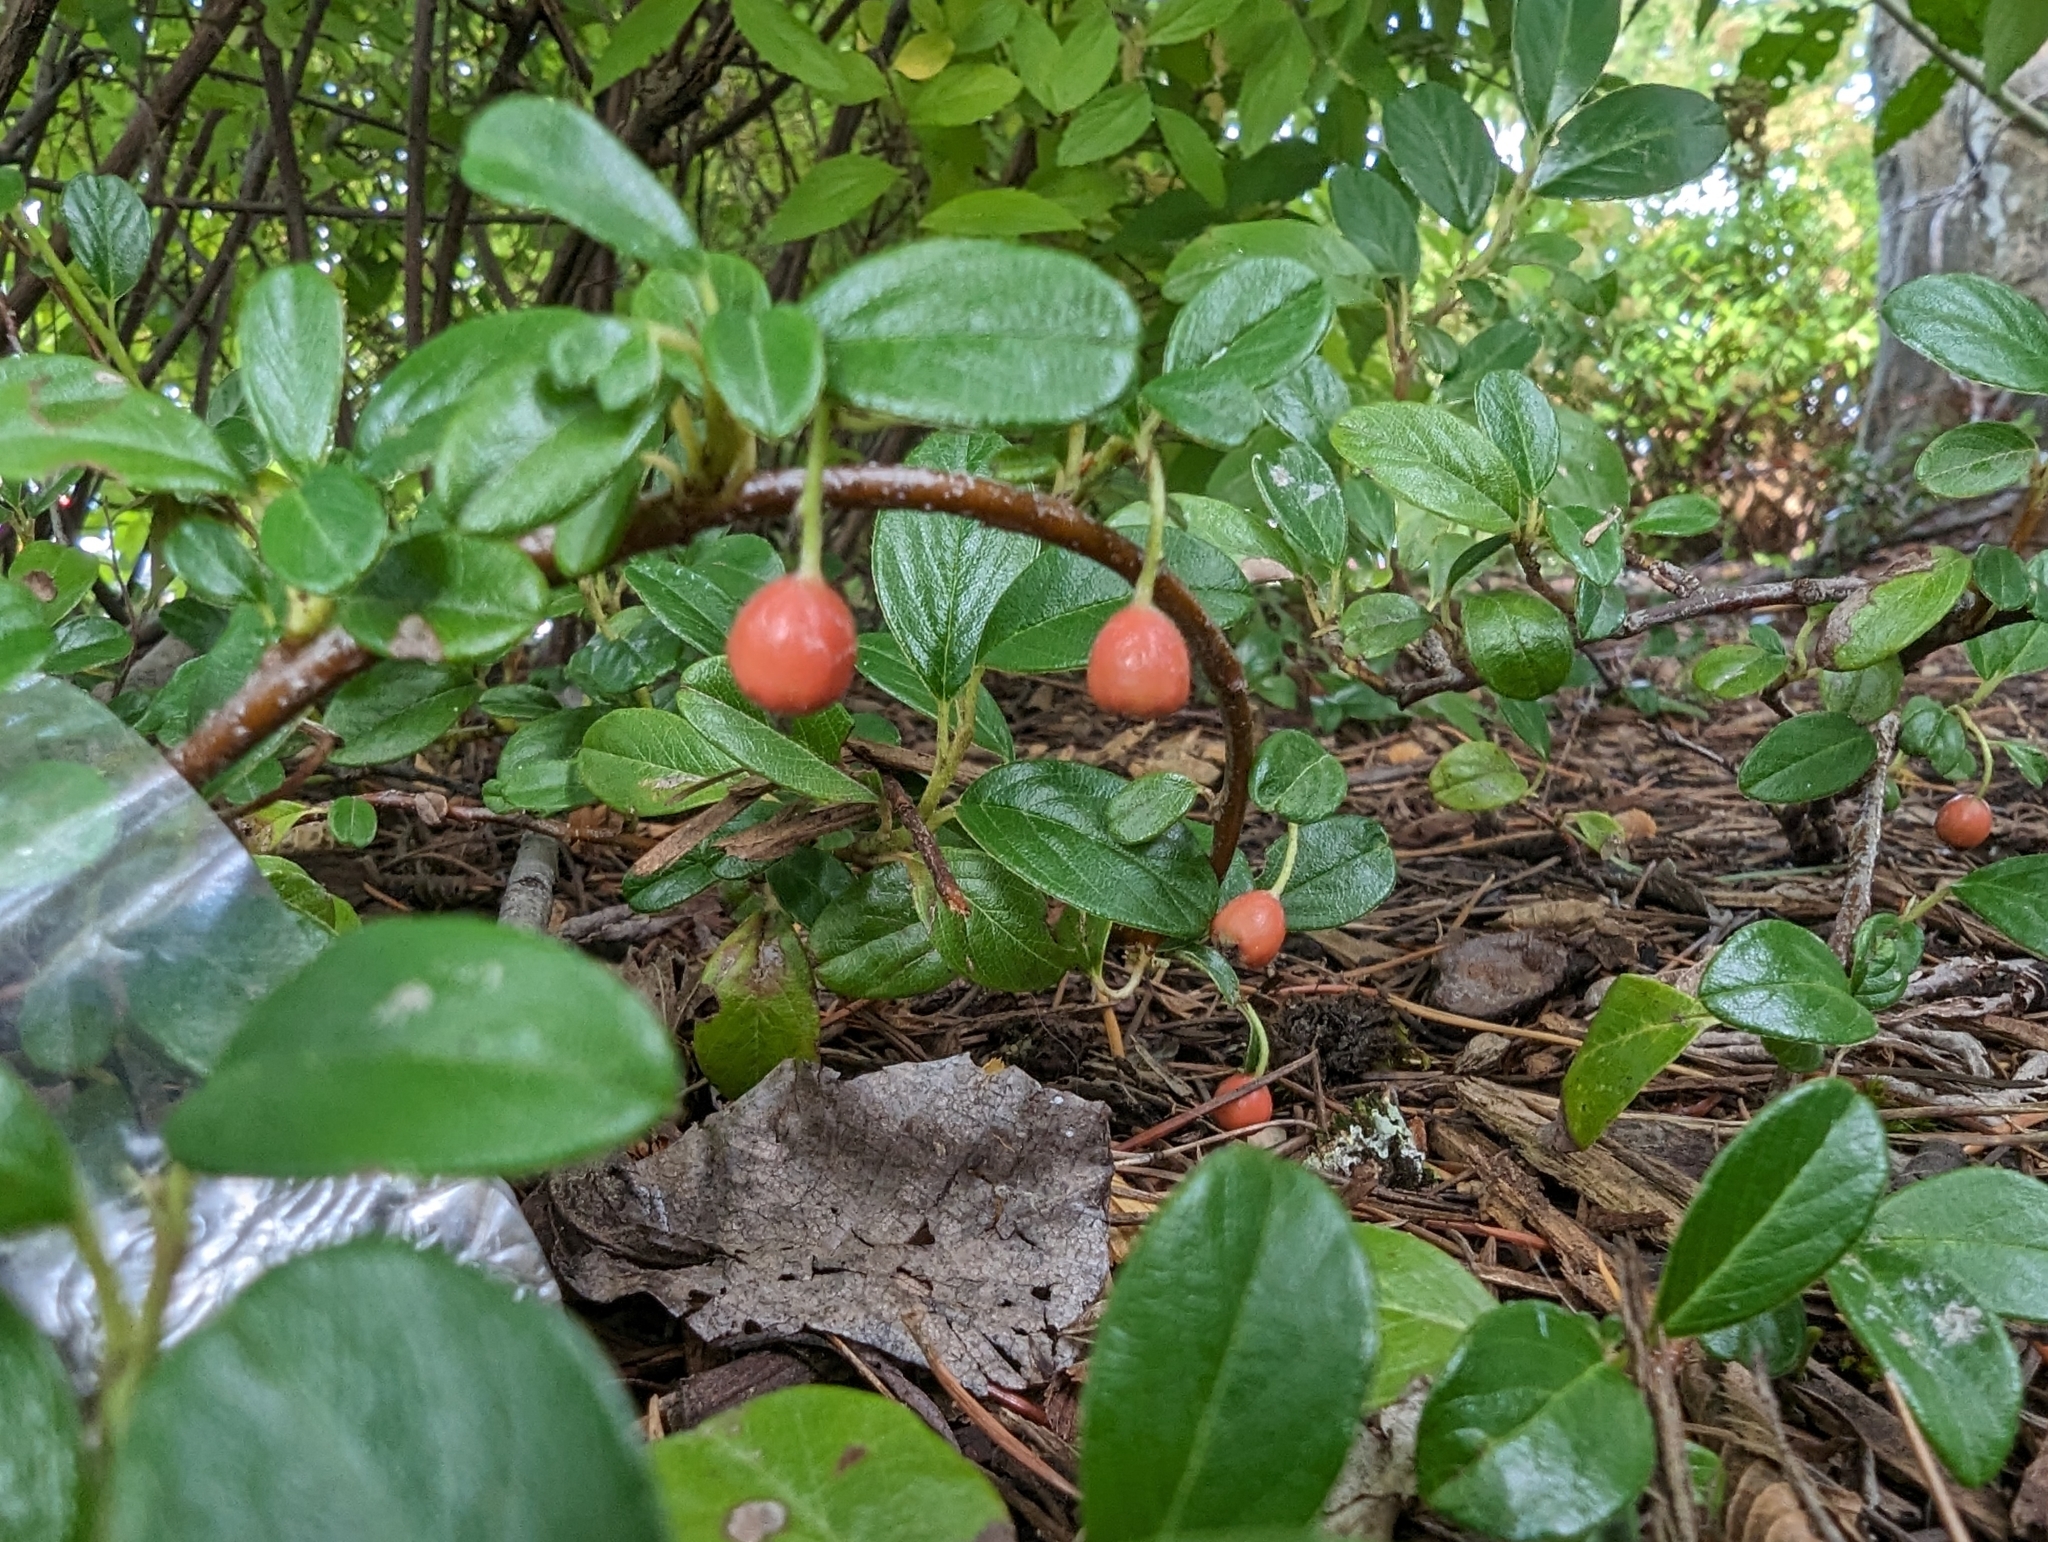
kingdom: Plantae
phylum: Tracheophyta
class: Magnoliopsida
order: Rosales
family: Rosaceae
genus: Cotoneaster
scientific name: Cotoneaster dammeri
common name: Bearberry cotoneaster
